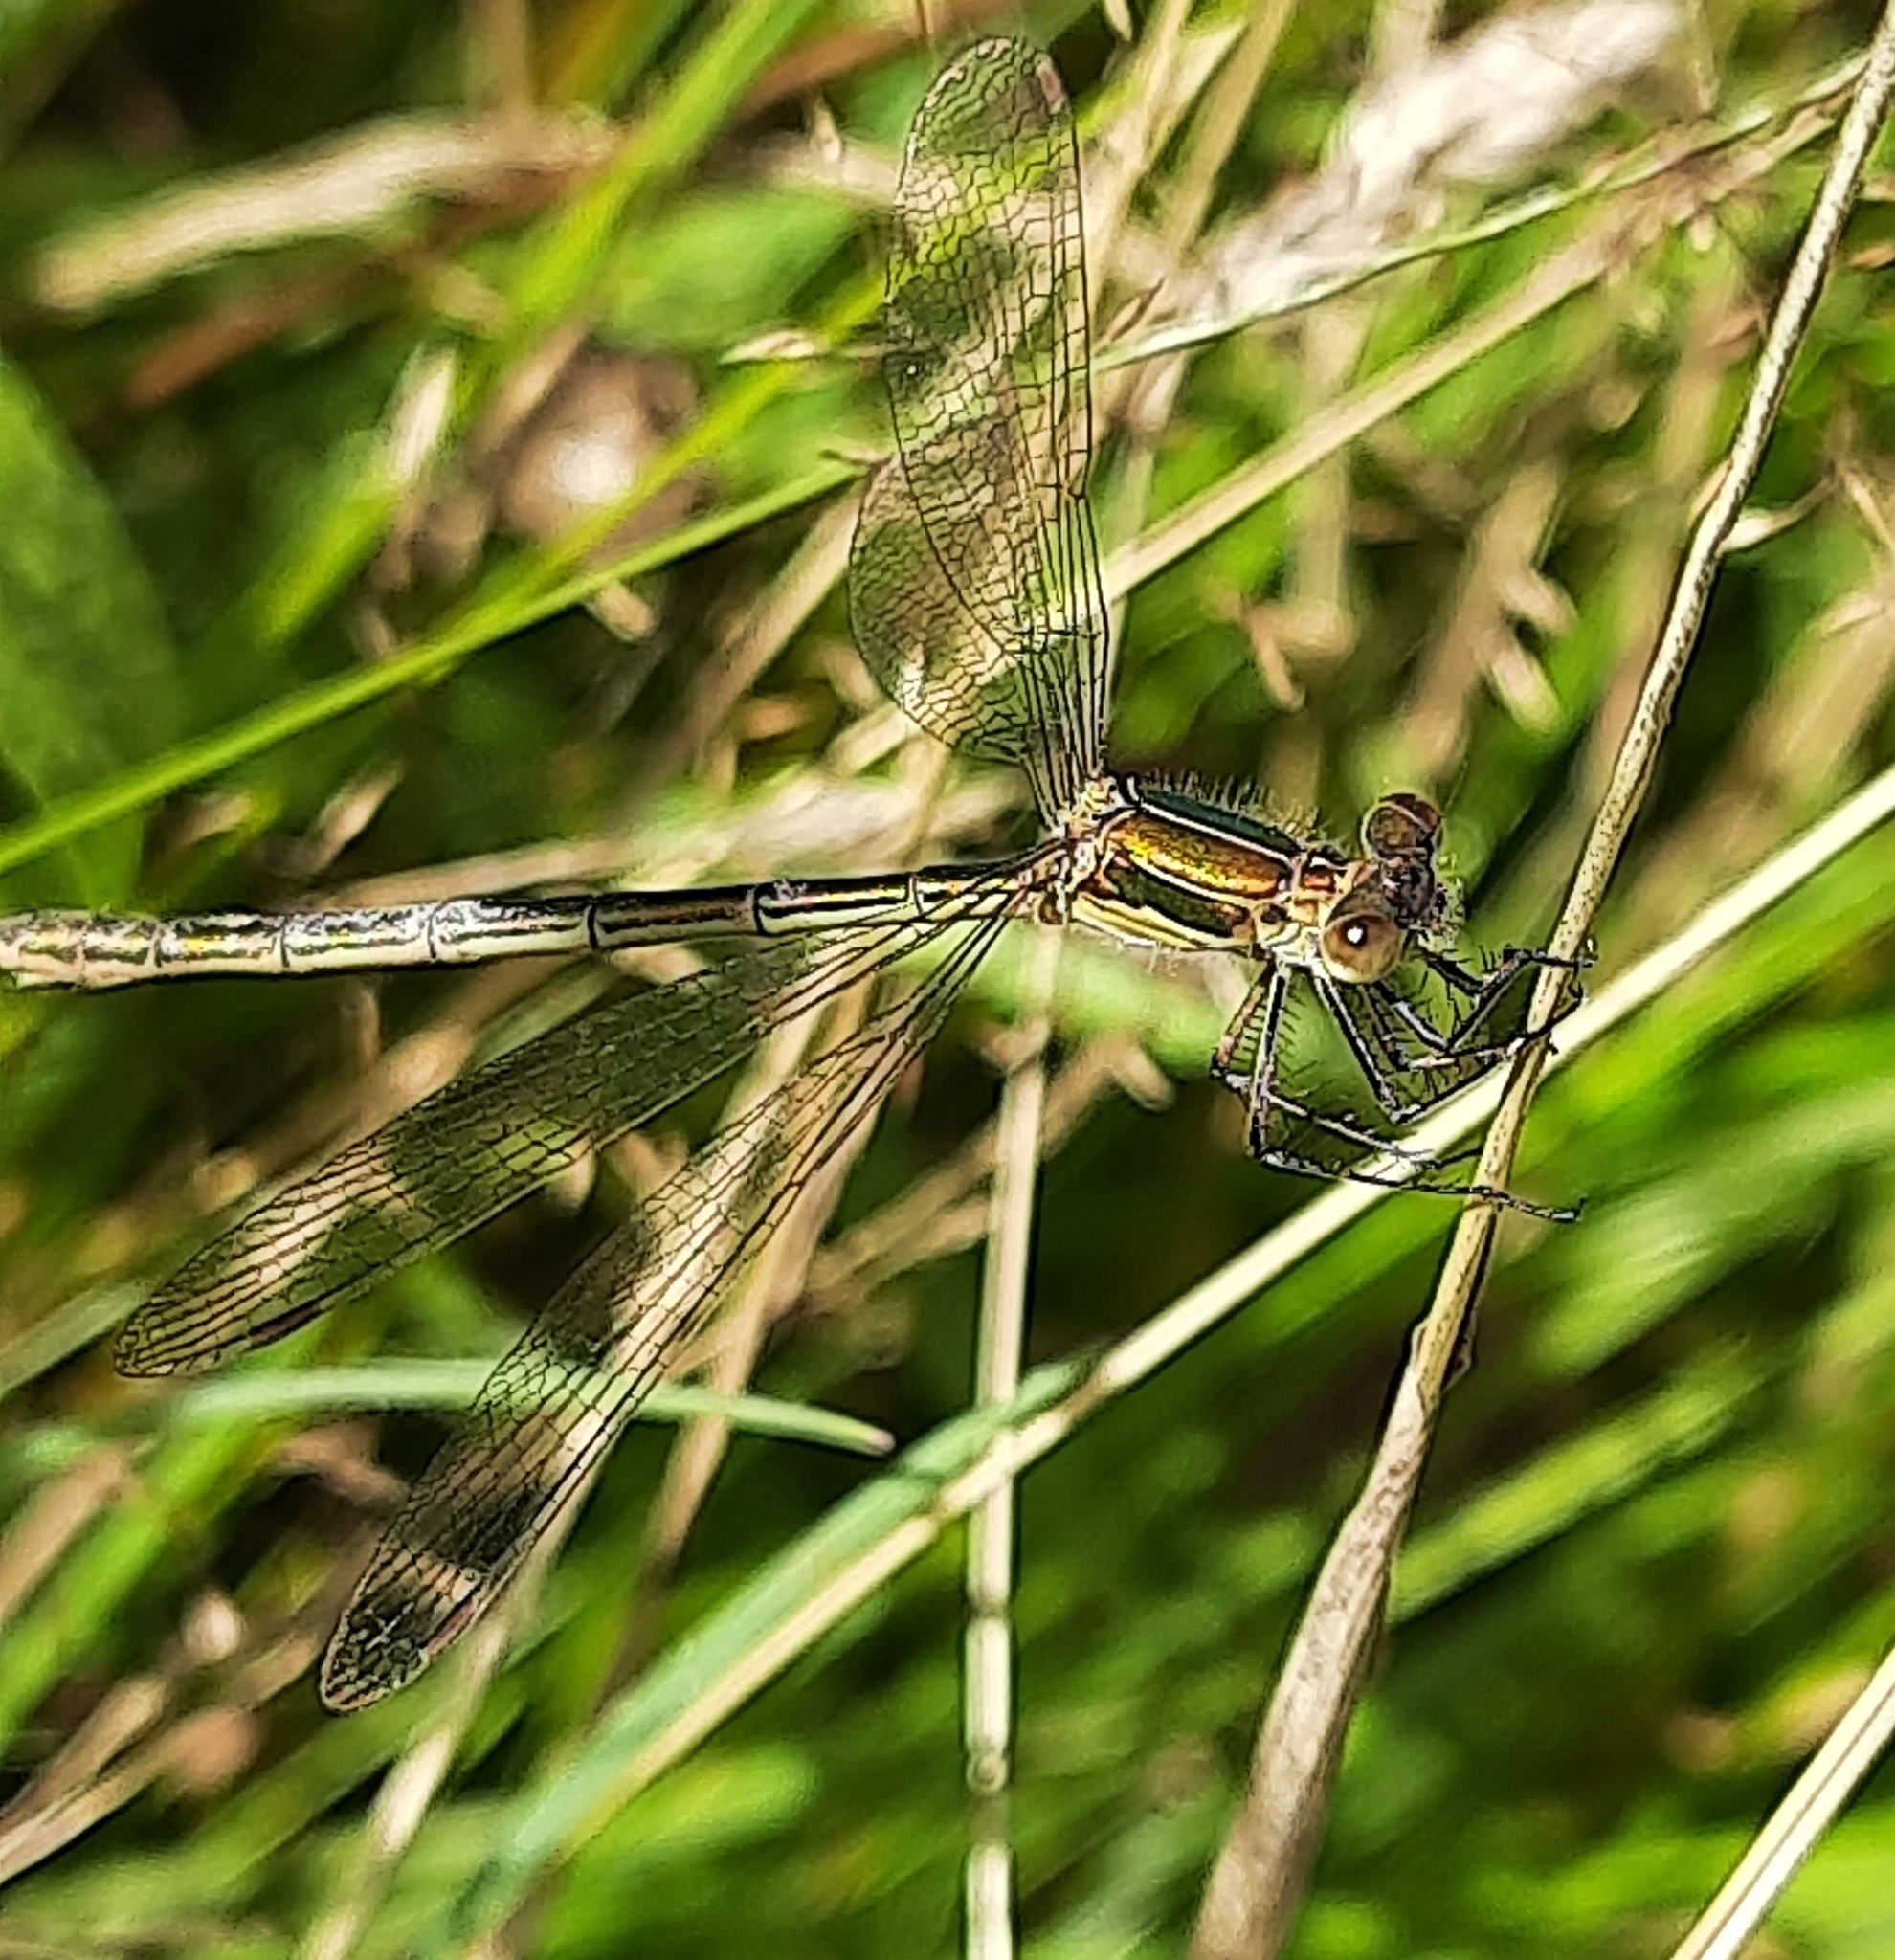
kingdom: Animalia
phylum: Arthropoda
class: Insecta
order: Odonata
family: Lestidae
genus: Lestes
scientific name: Lestes sponsa
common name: Common spreadwing
